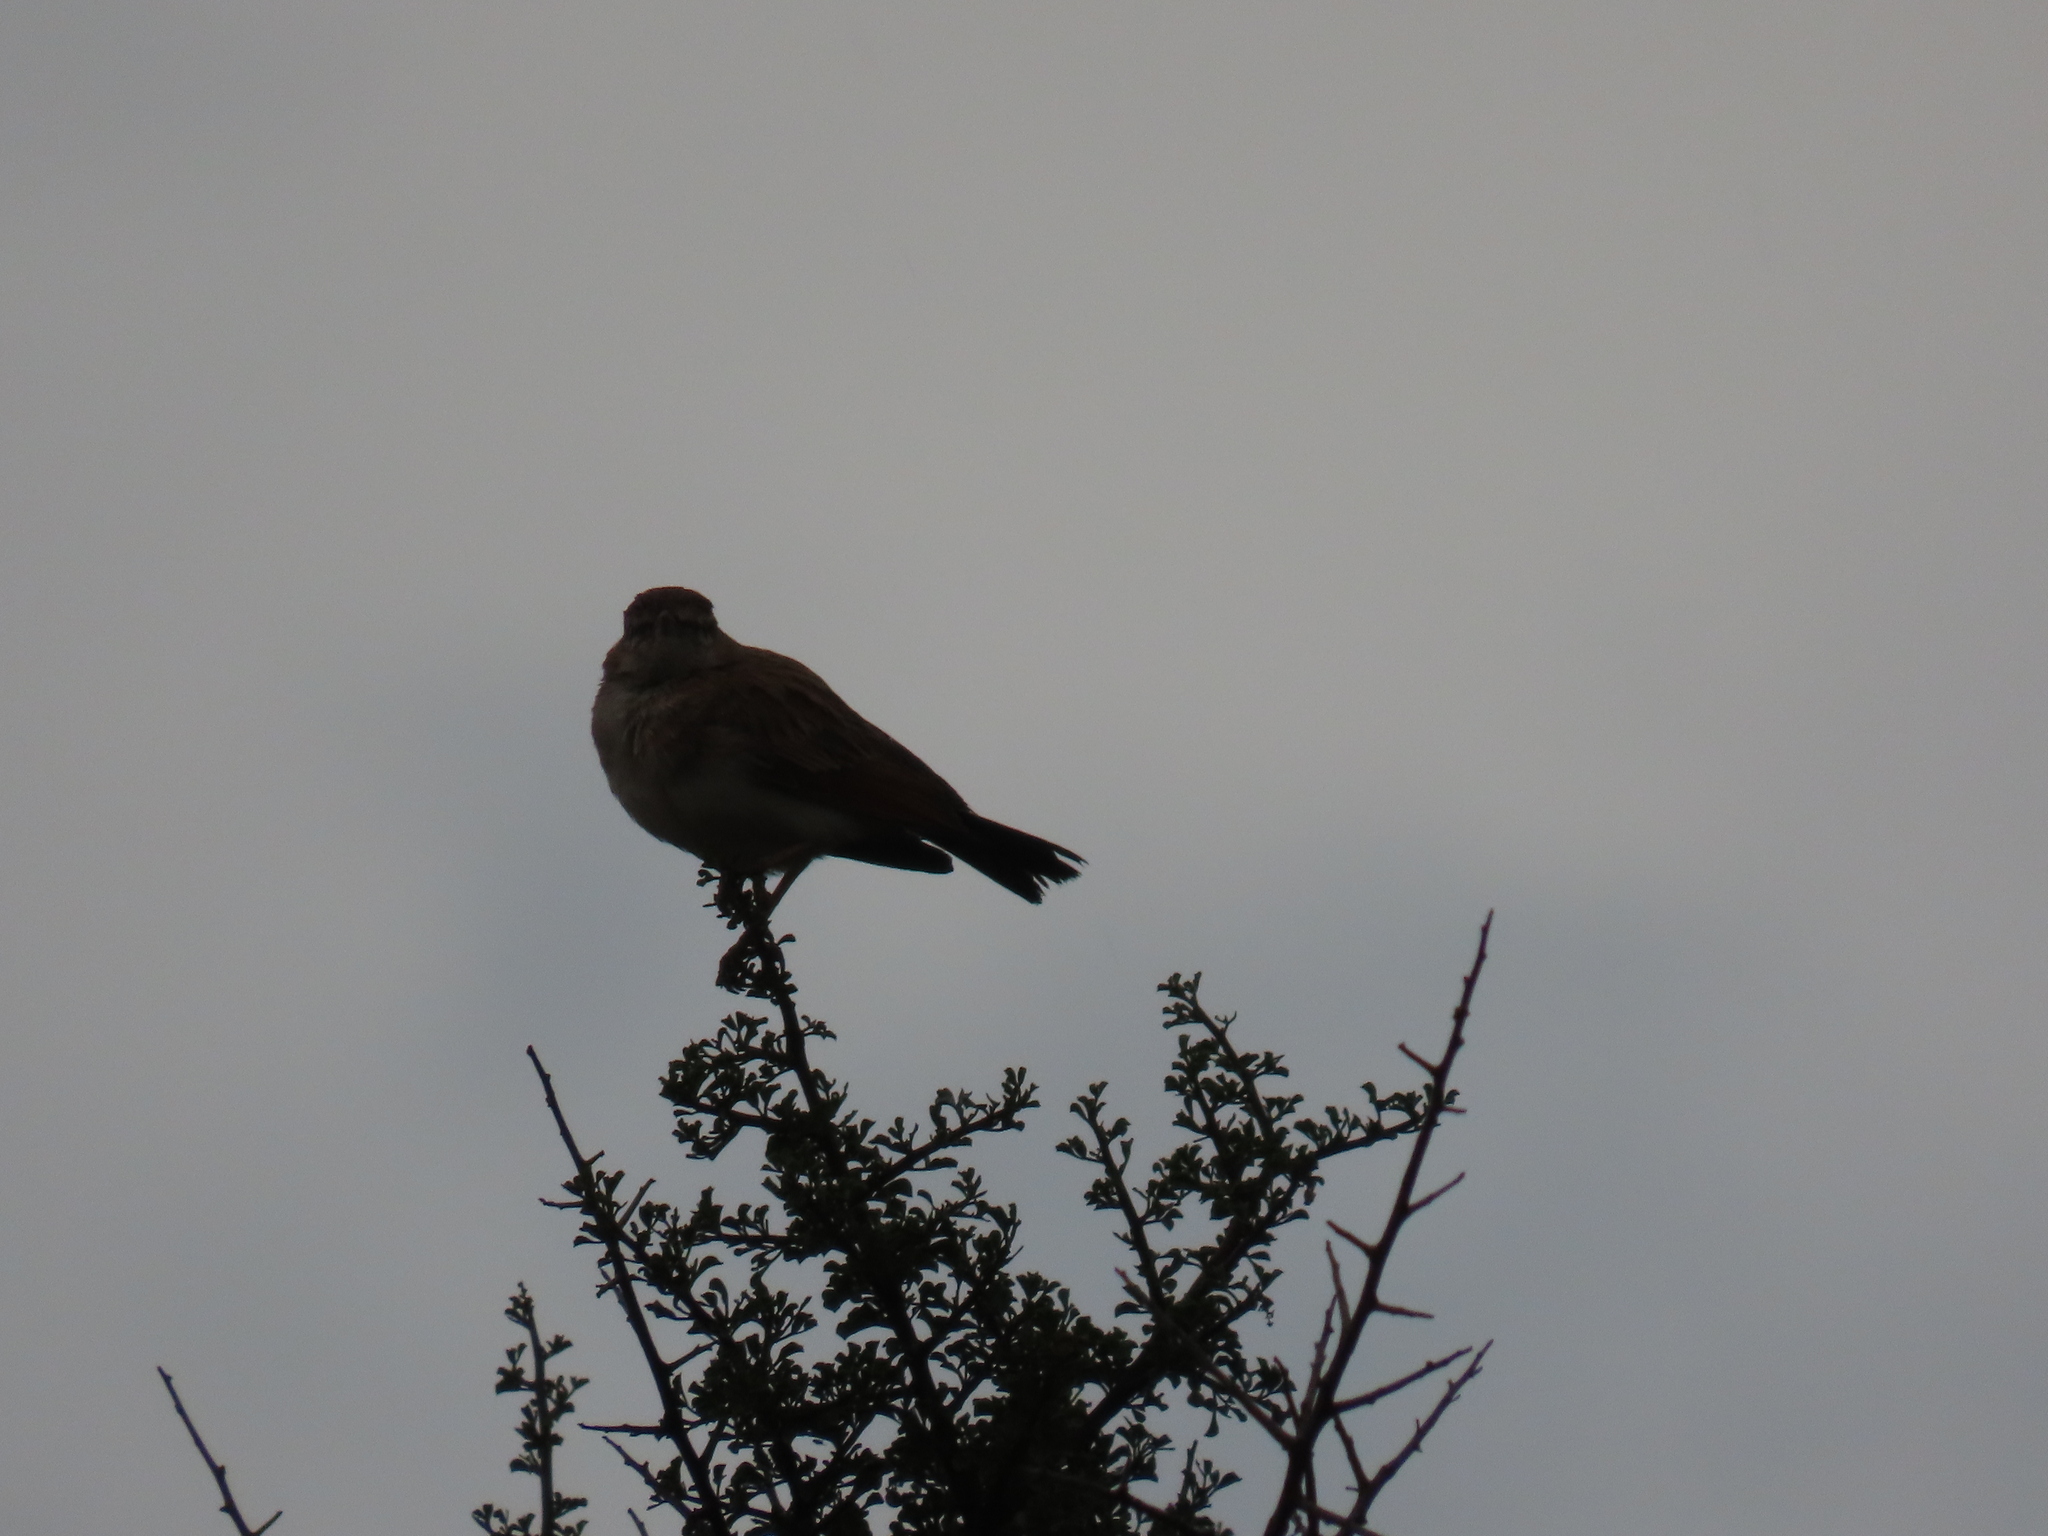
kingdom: Animalia
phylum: Chordata
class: Aves
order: Passeriformes
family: Alaudidae
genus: Calendulauda
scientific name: Calendulauda africanoides
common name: Fawn-colored lark
